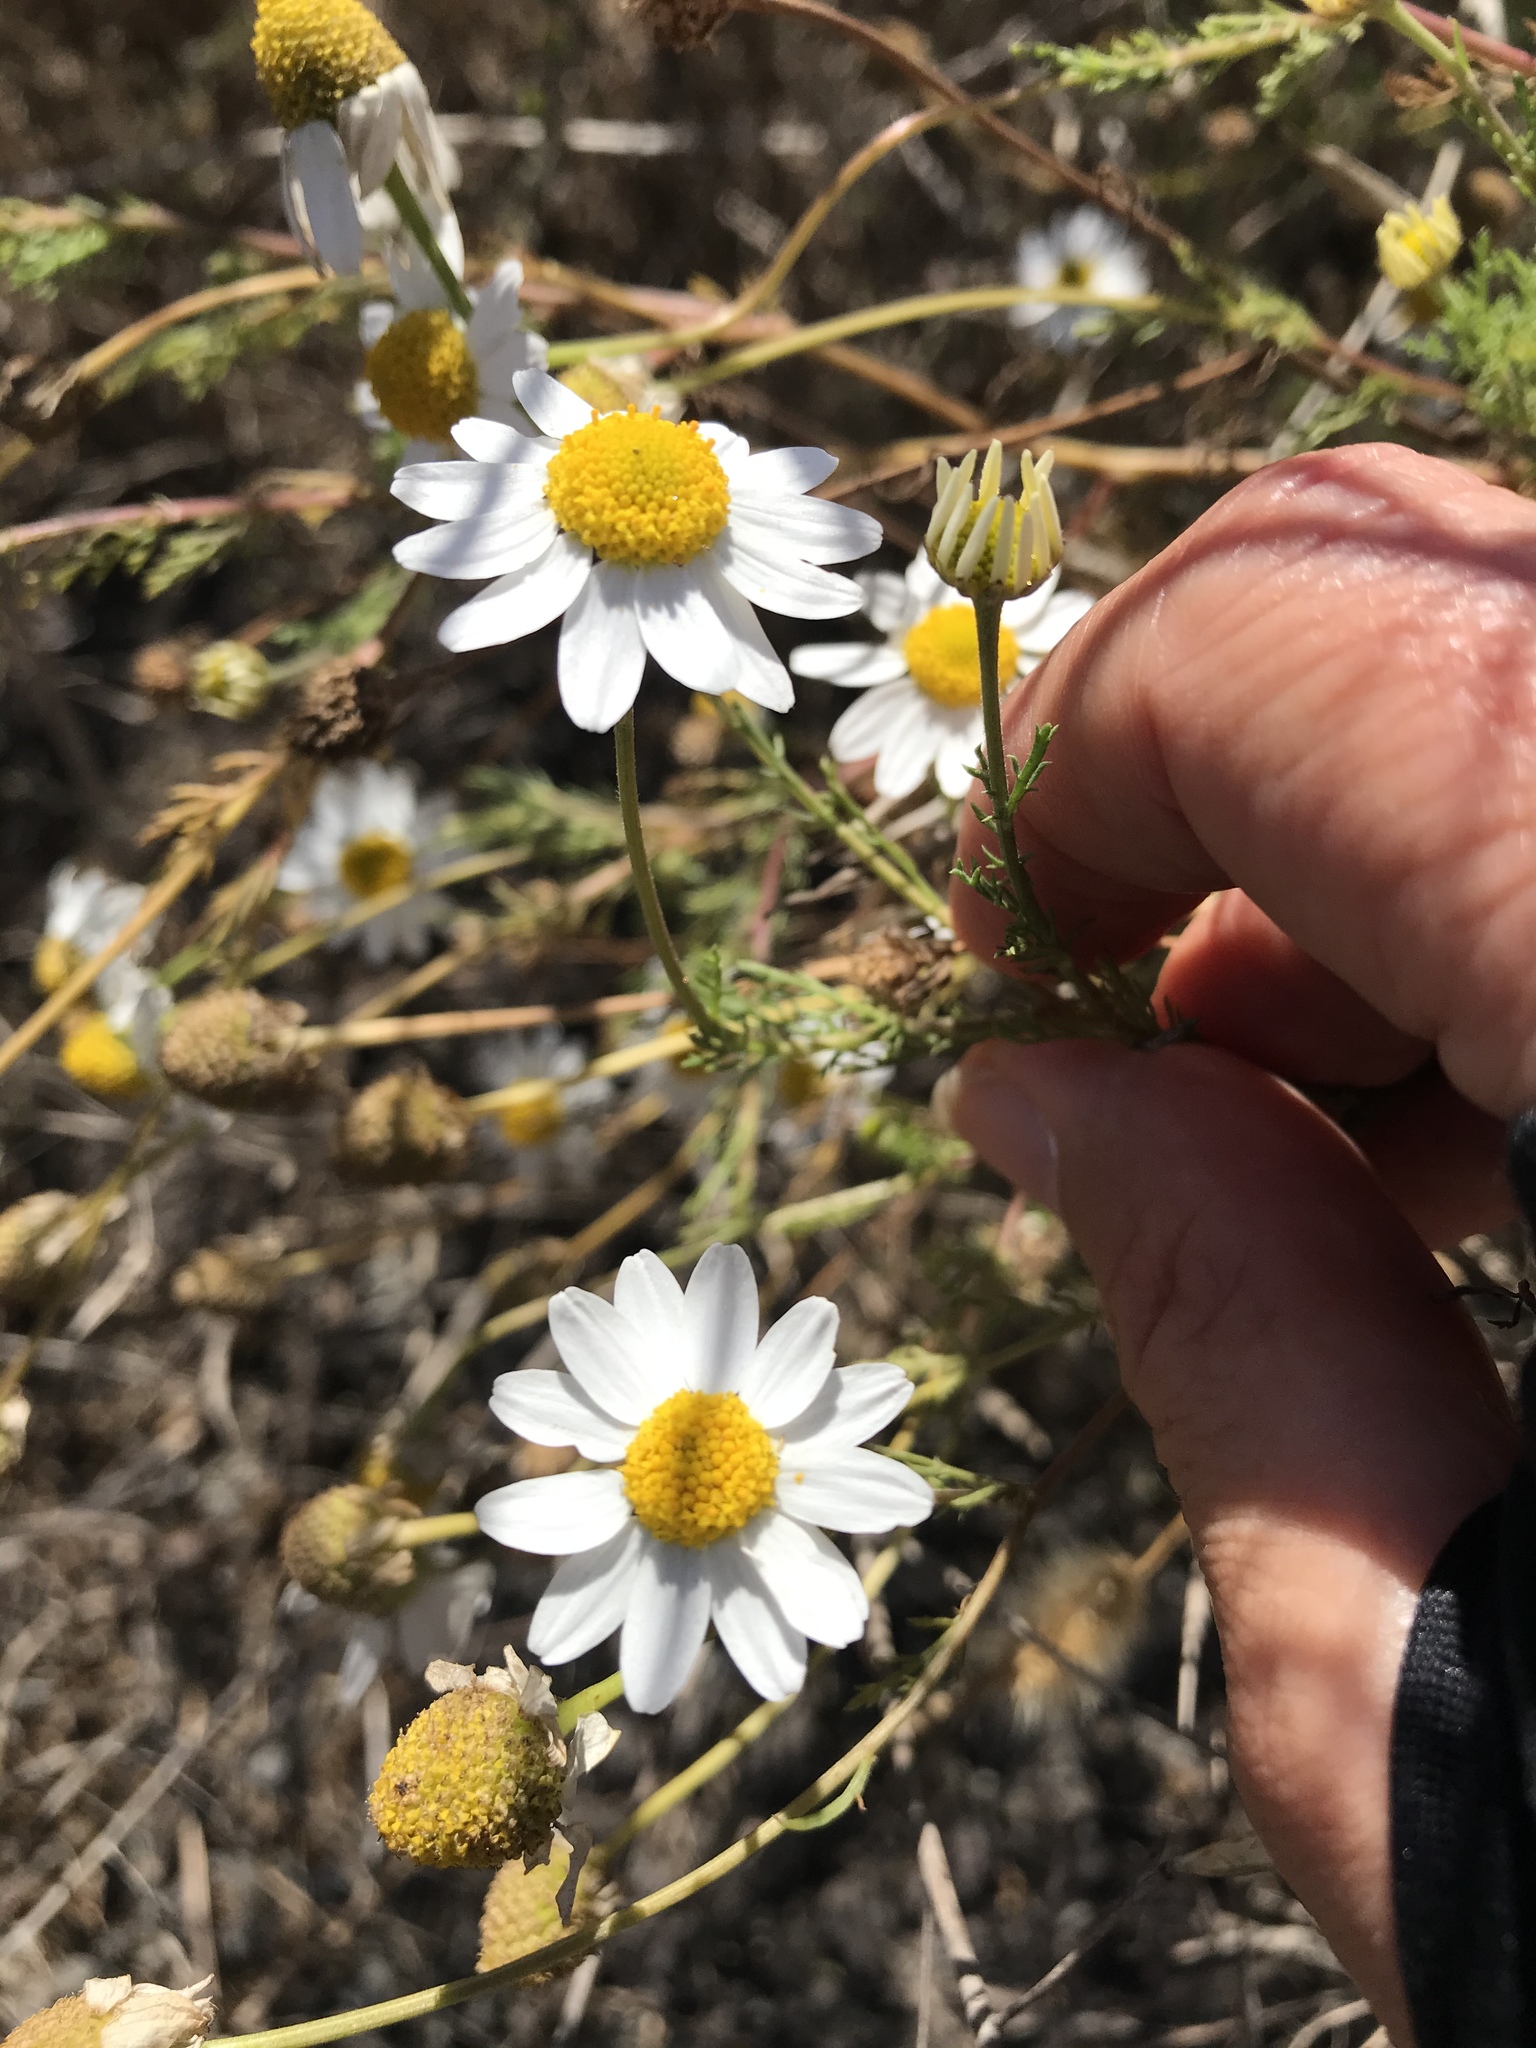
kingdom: Plantae
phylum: Tracheophyta
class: Magnoliopsida
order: Asterales
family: Asteraceae
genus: Anthemis
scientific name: Anthemis cotula
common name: Stinking chamomile
